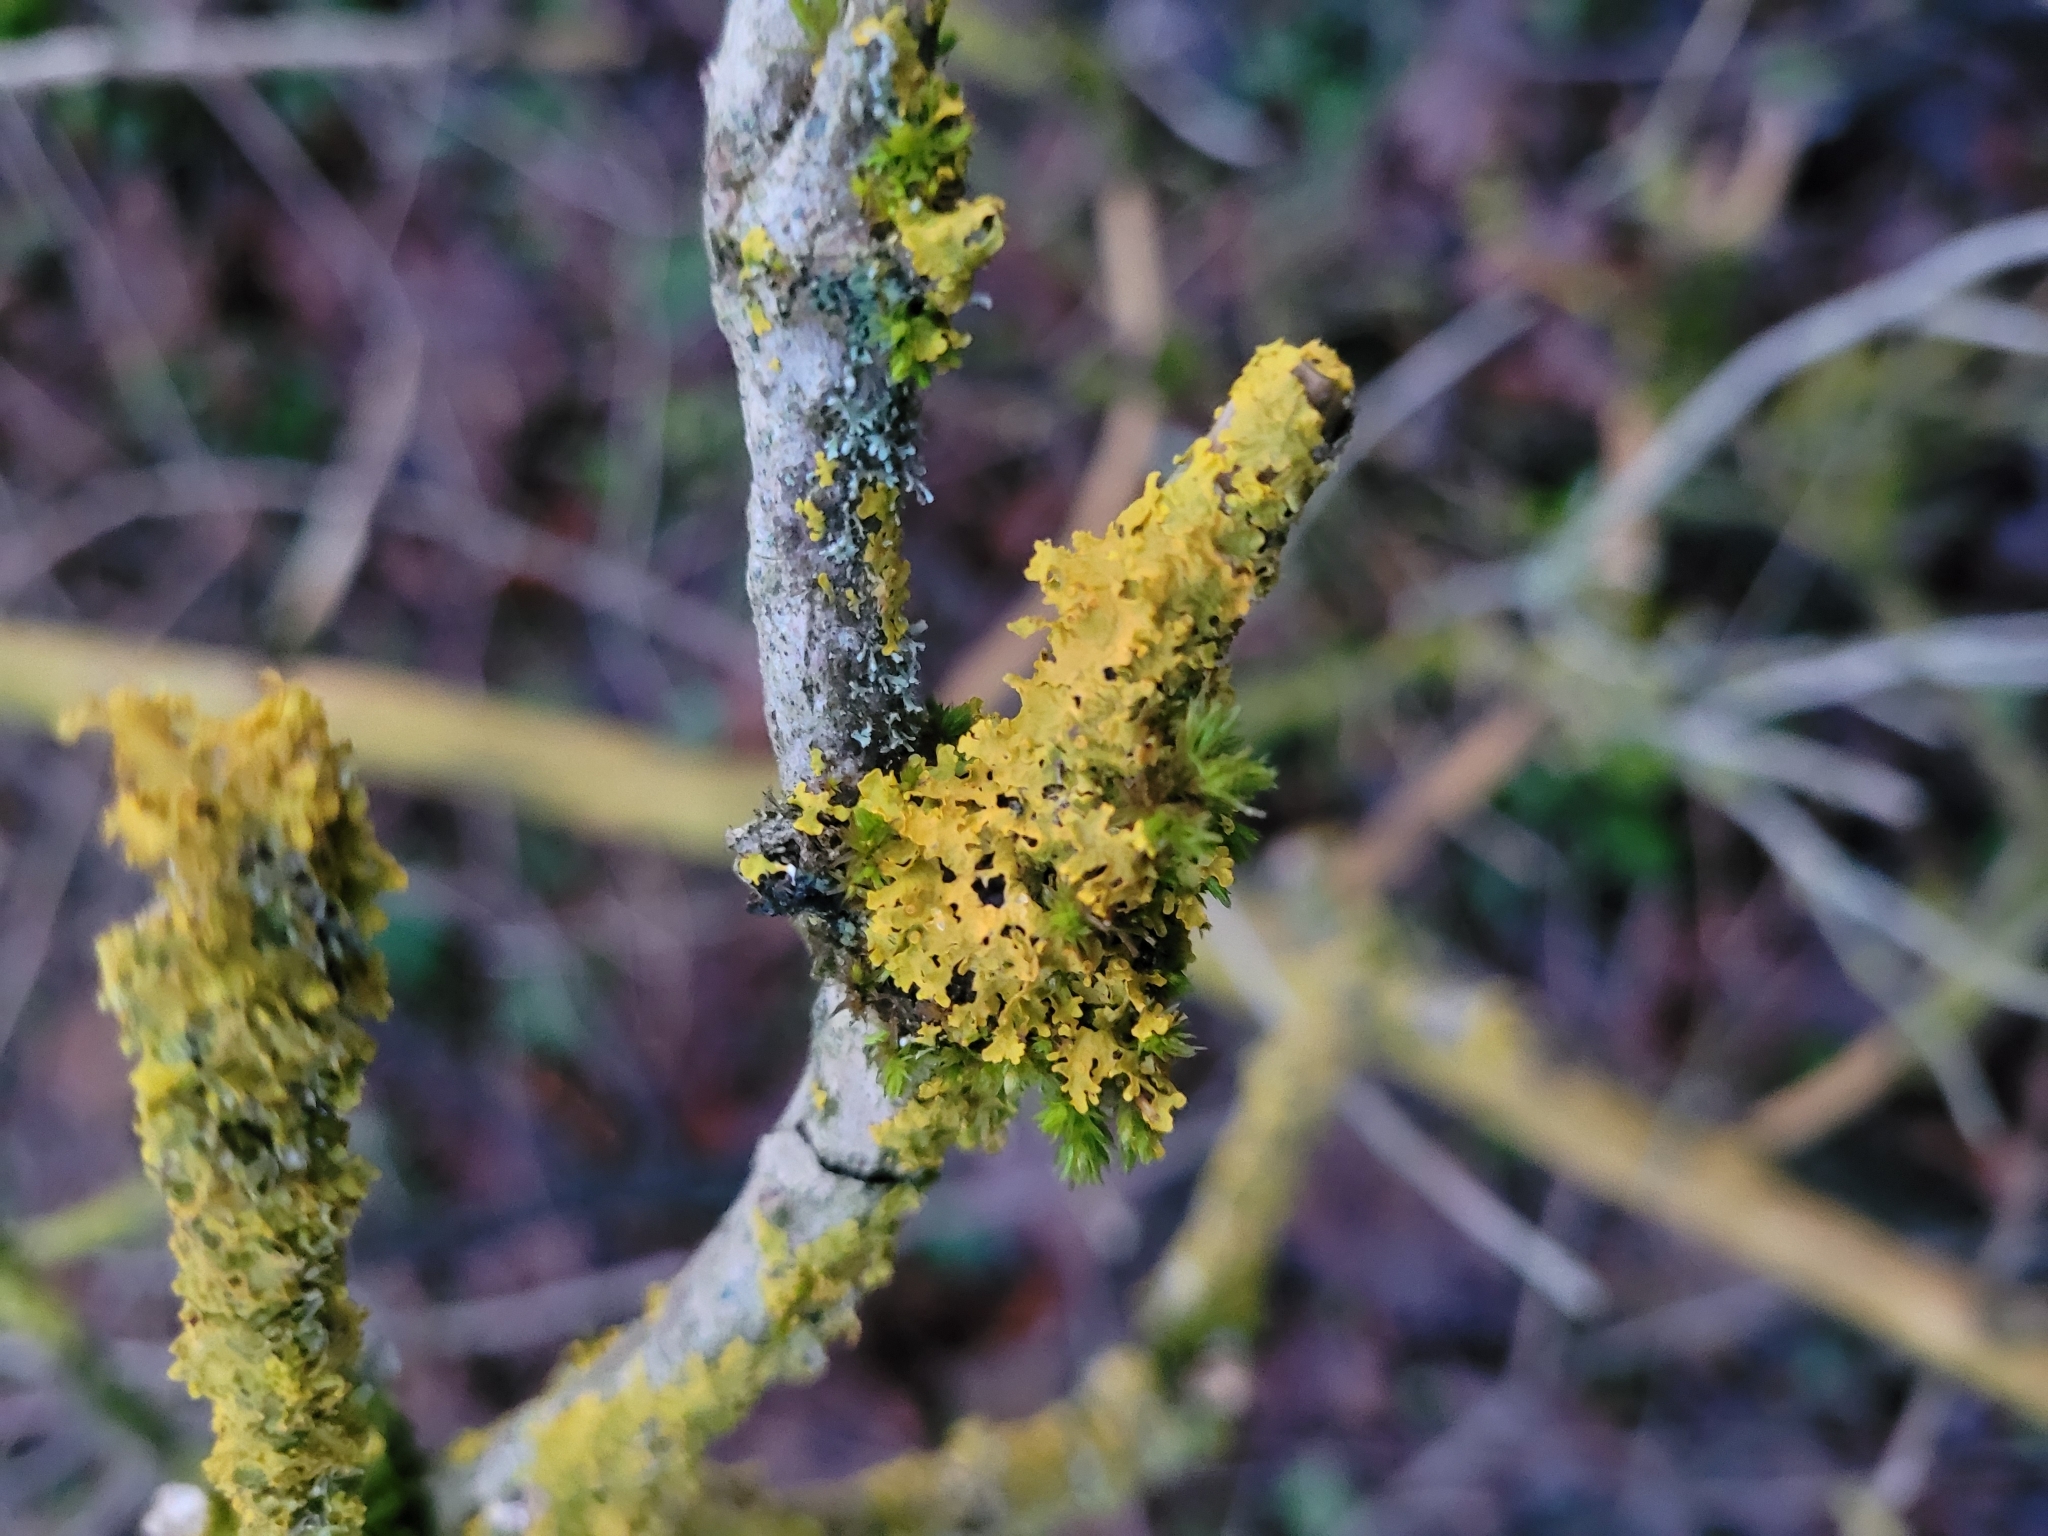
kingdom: Fungi
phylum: Ascomycota
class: Lecanoromycetes
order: Teloschistales
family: Teloschistaceae
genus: Xanthoria
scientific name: Xanthoria parietina
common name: Common orange lichen
